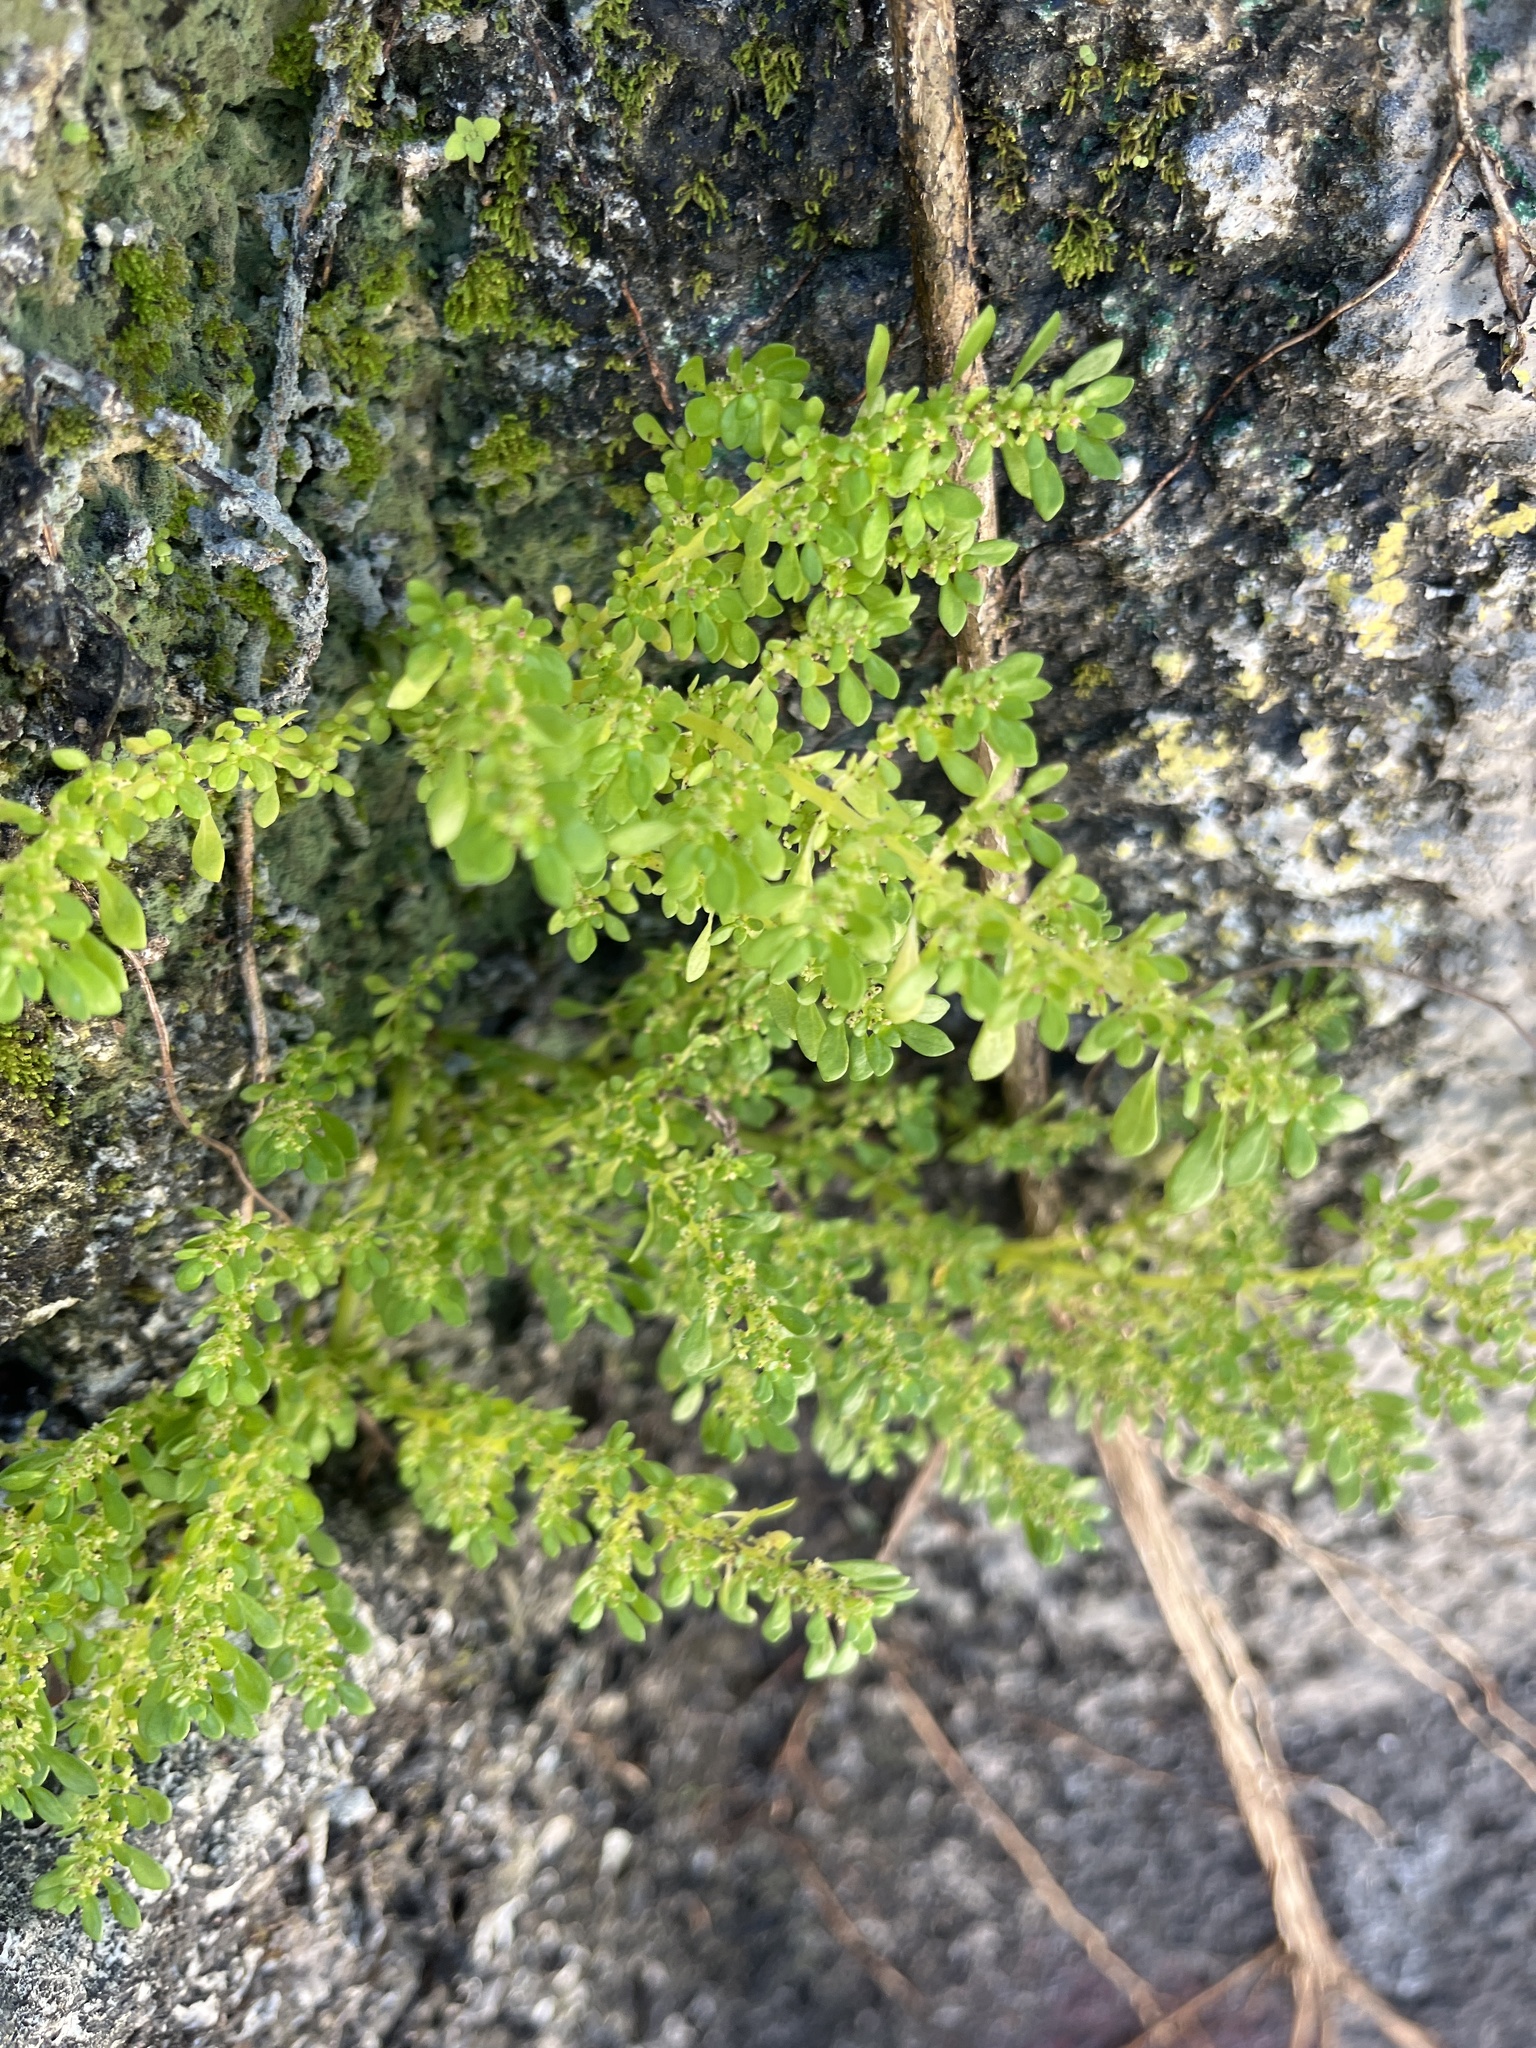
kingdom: Plantae
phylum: Tracheophyta
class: Magnoliopsida
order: Rosales
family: Urticaceae
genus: Pilea
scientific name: Pilea microphylla
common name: Artillery-plant
